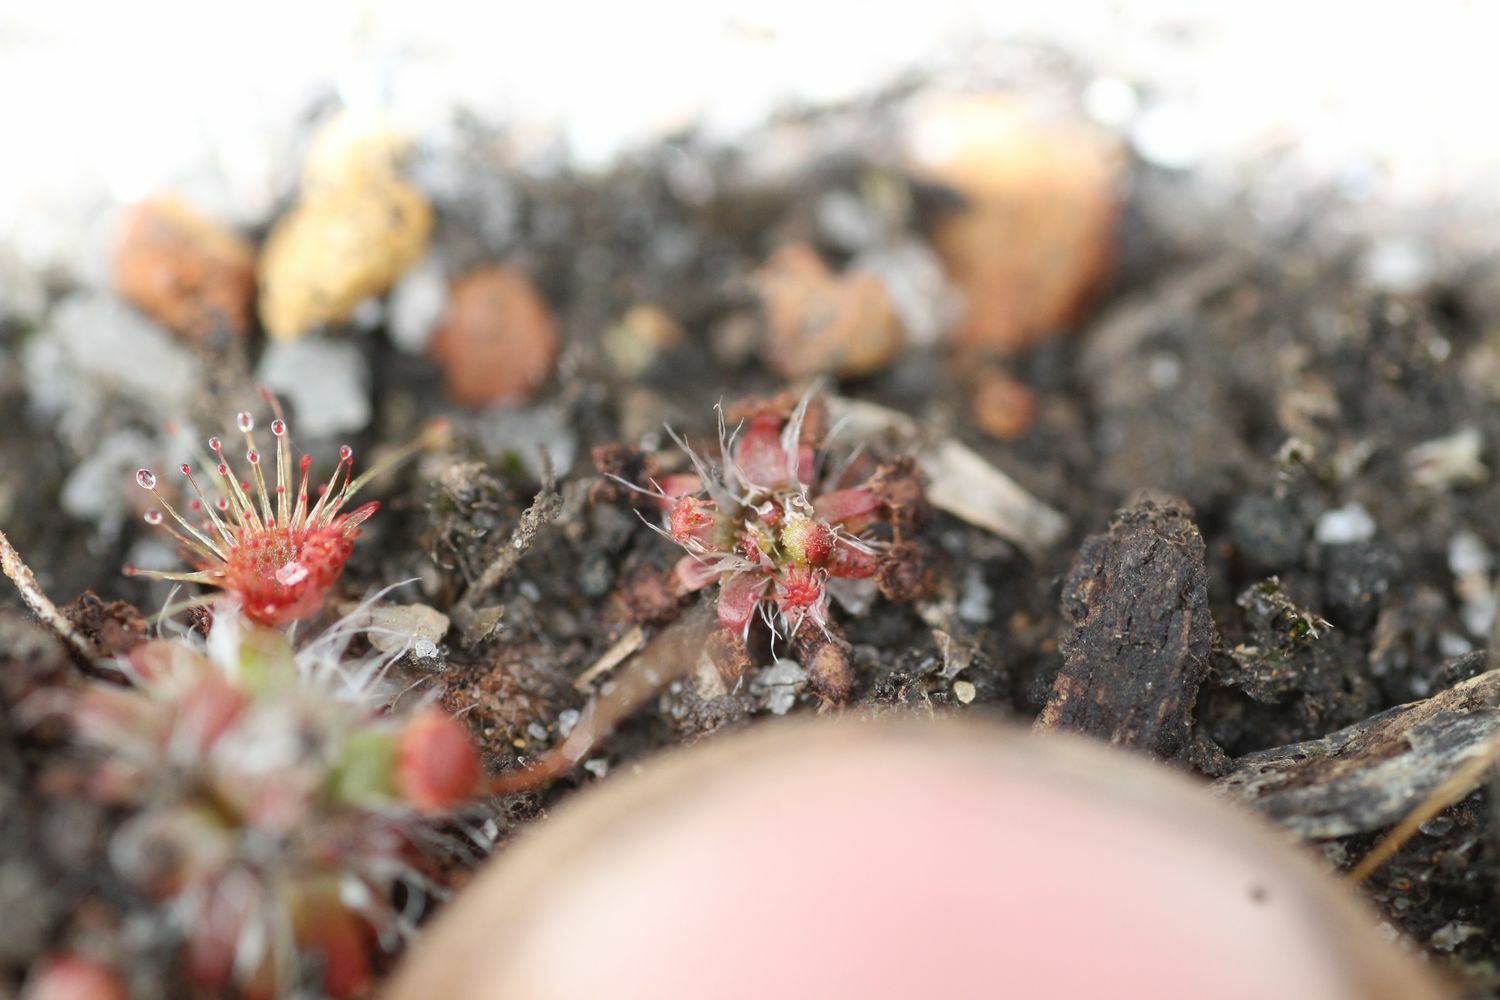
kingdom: Plantae
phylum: Tracheophyta
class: Magnoliopsida
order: Caryophyllales
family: Droseraceae
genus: Drosera
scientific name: Drosera pulchella
